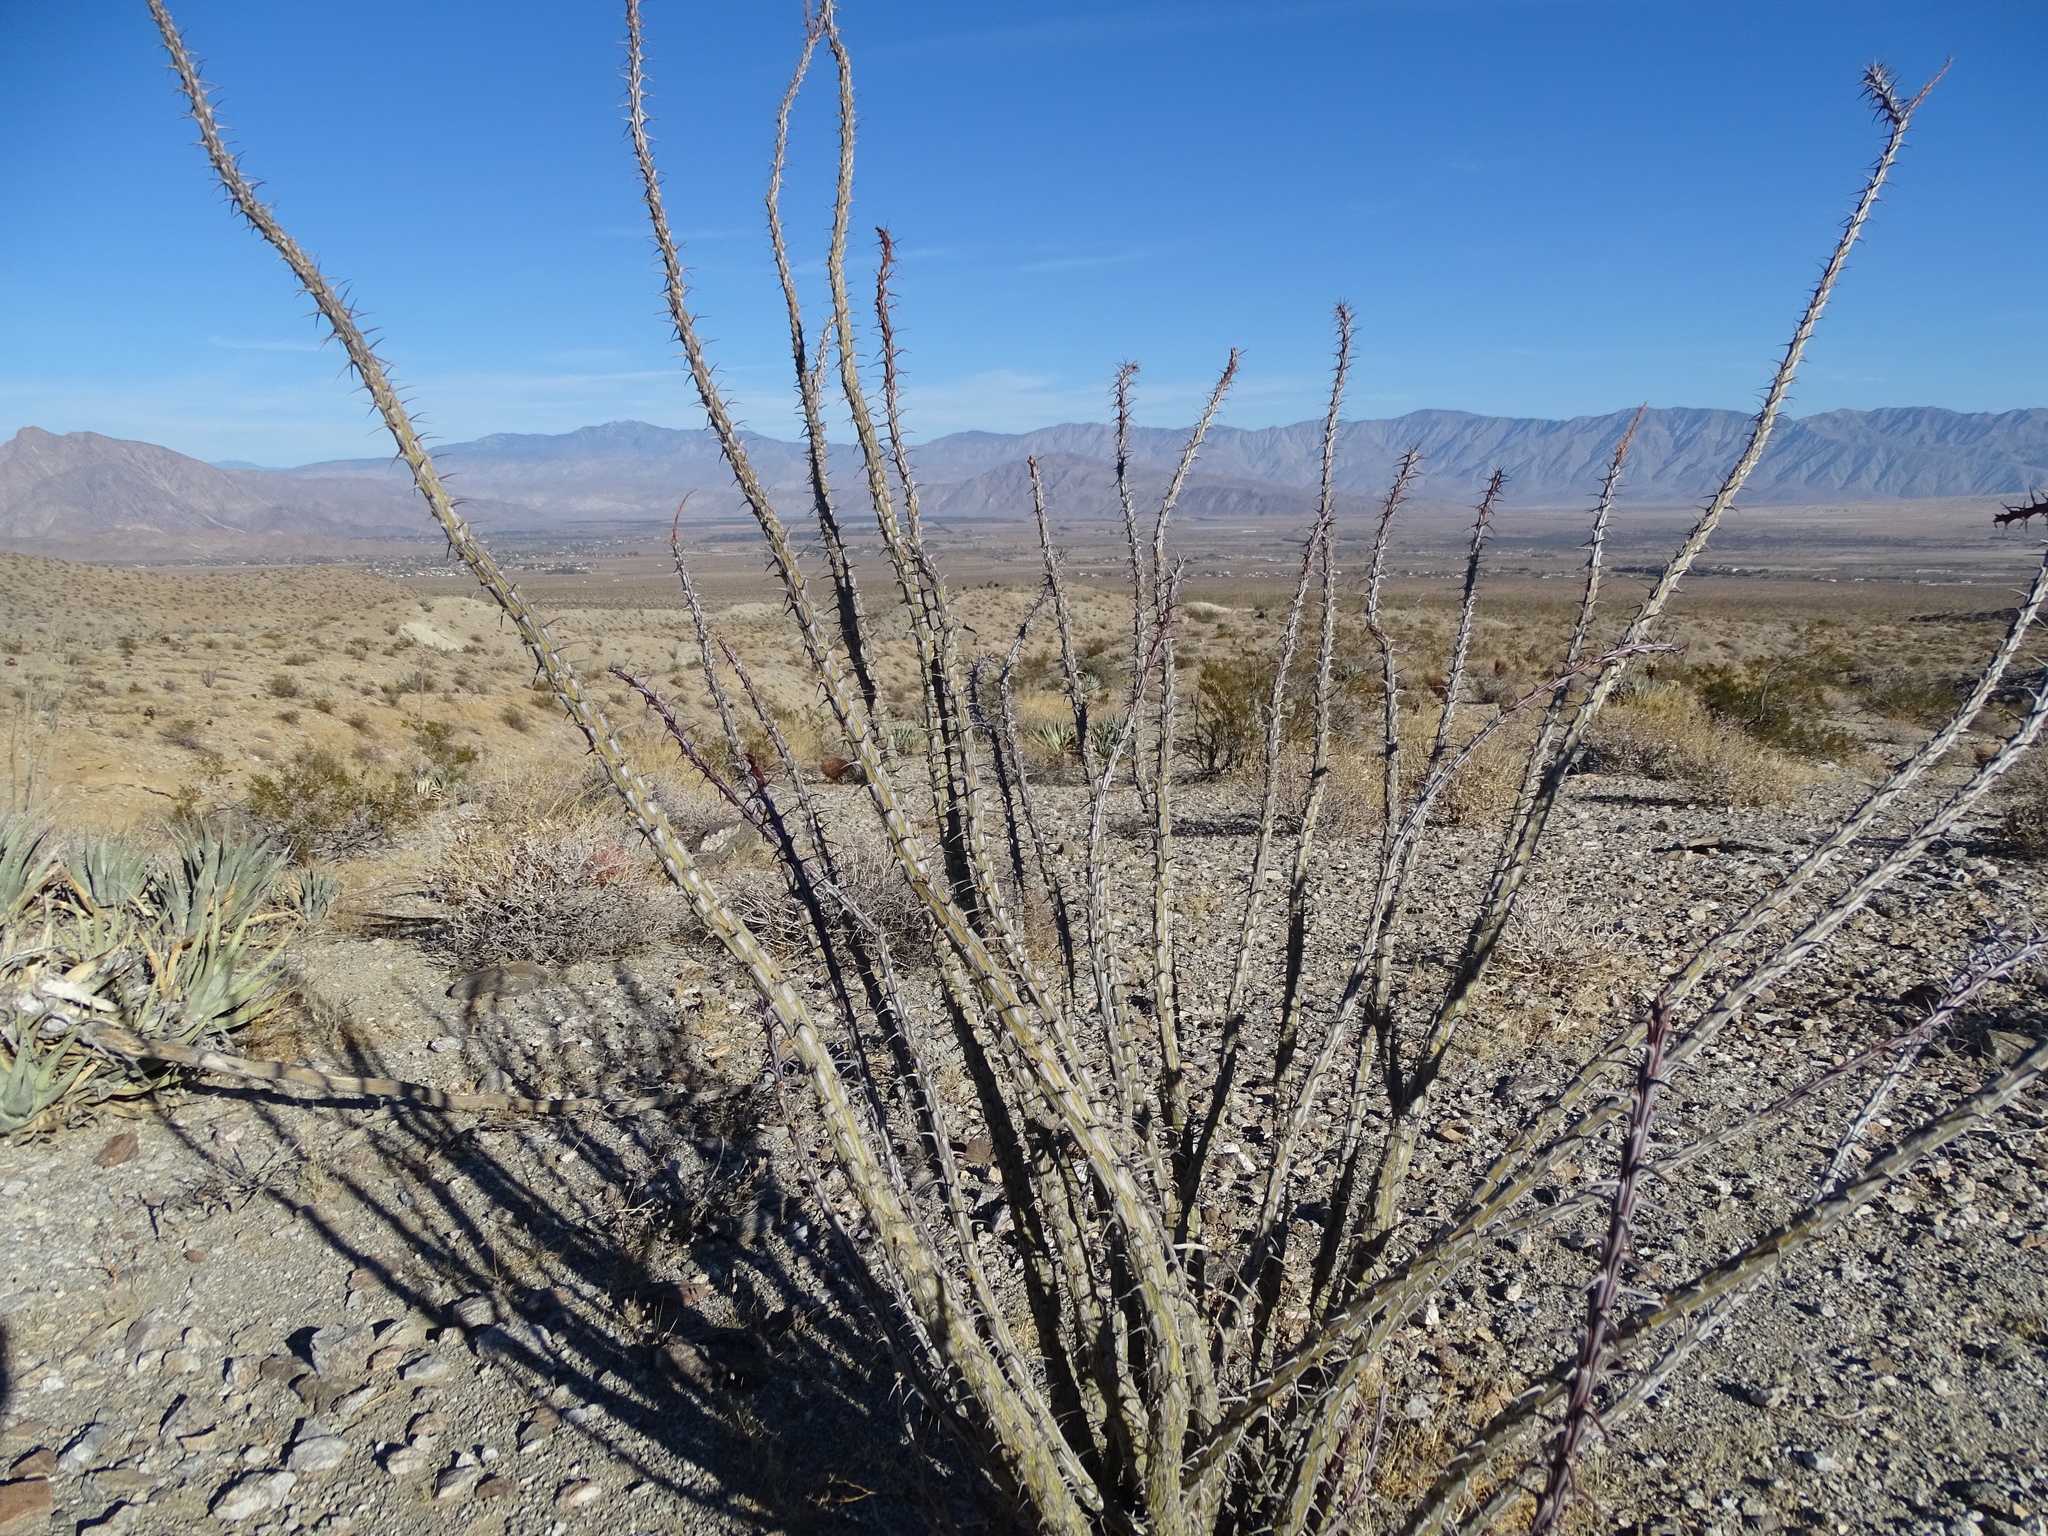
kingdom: Plantae
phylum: Tracheophyta
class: Magnoliopsida
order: Ericales
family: Fouquieriaceae
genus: Fouquieria
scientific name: Fouquieria splendens
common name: Vine-cactus
